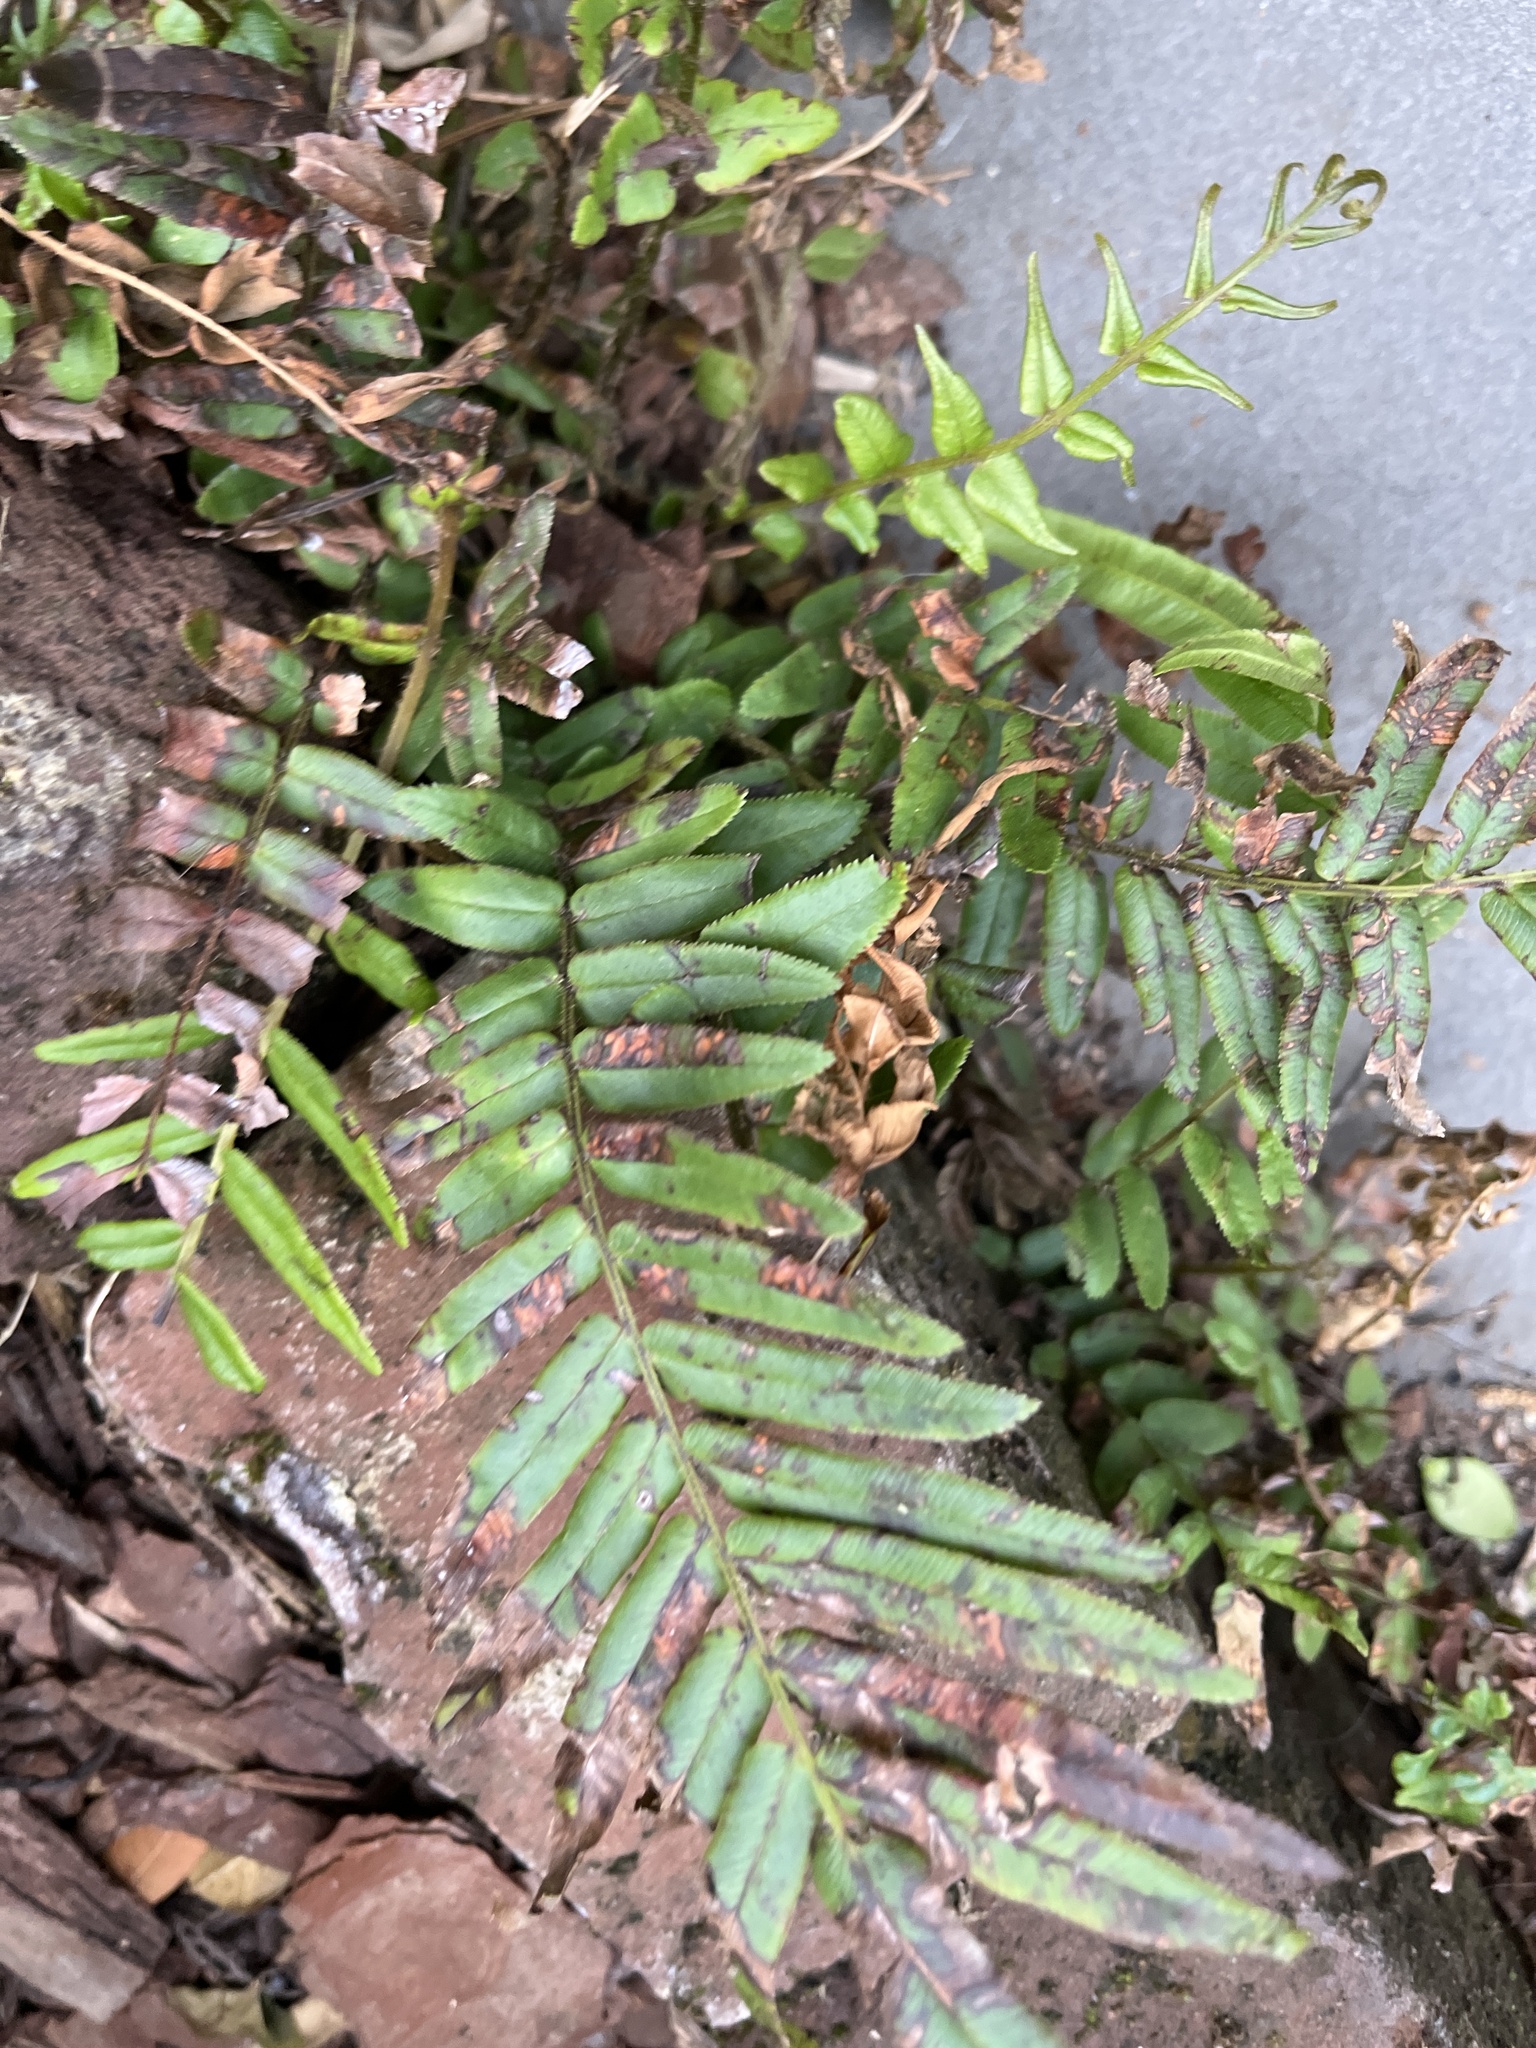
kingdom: Plantae
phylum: Tracheophyta
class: Polypodiopsida
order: Polypodiales
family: Pteridaceae
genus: Pteris
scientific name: Pteris vittata
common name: Ladder brake
